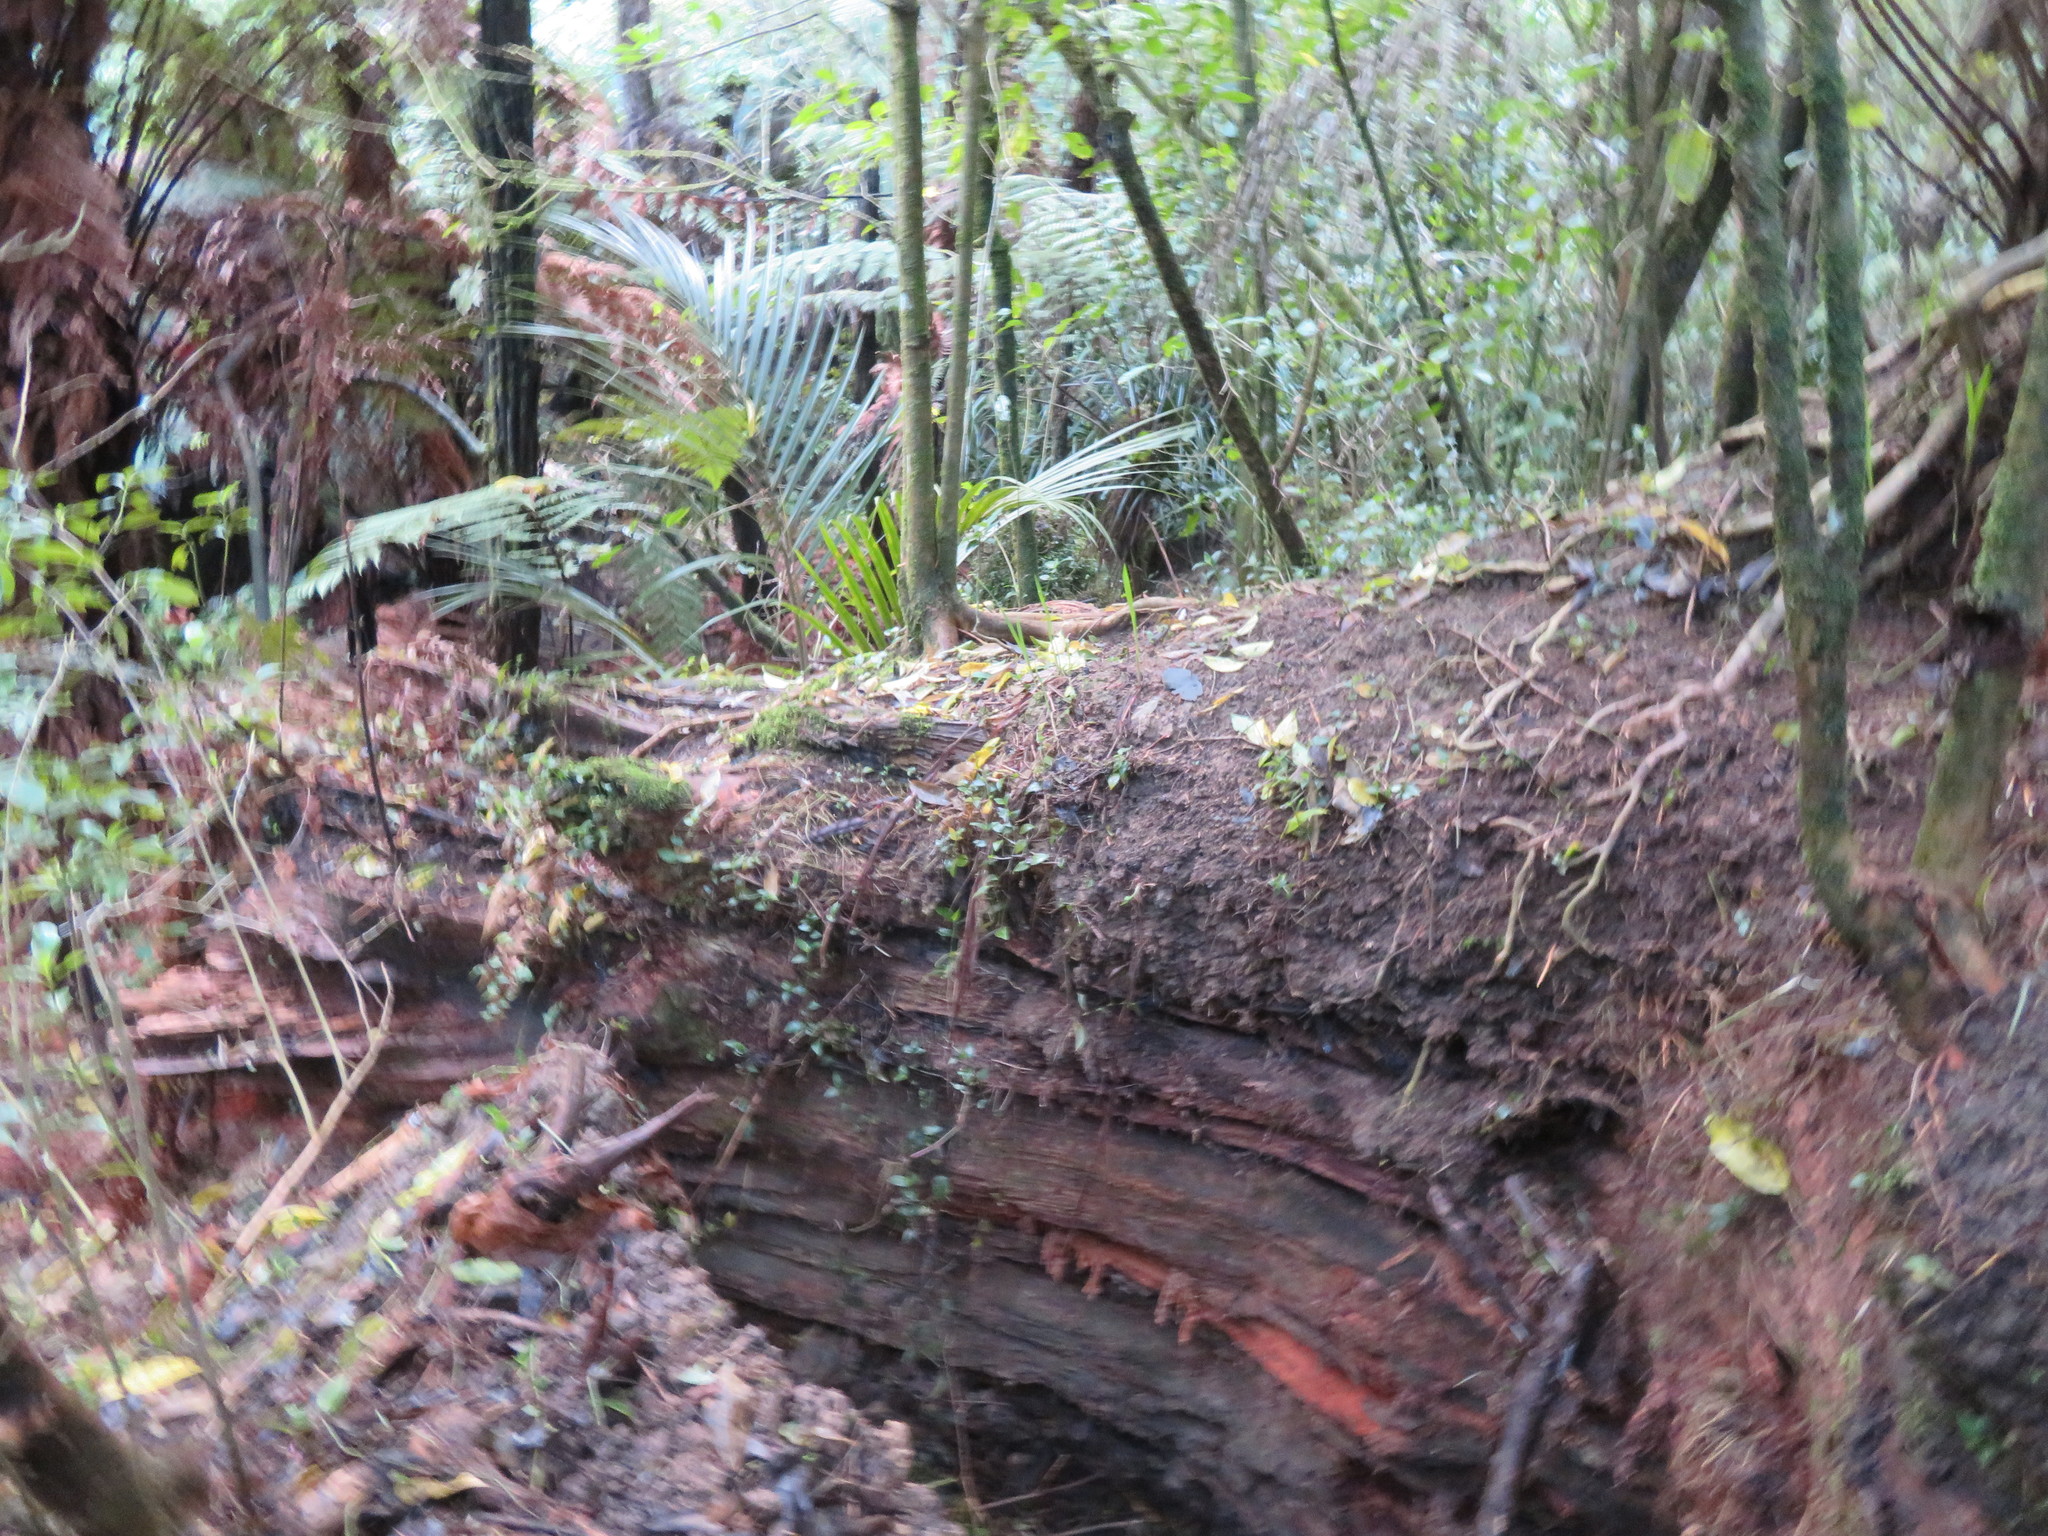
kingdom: Plantae
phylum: Tracheophyta
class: Liliopsida
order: Arecales
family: Arecaceae
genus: Rhopalostylis
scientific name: Rhopalostylis sapida
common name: Feather-duster palm
